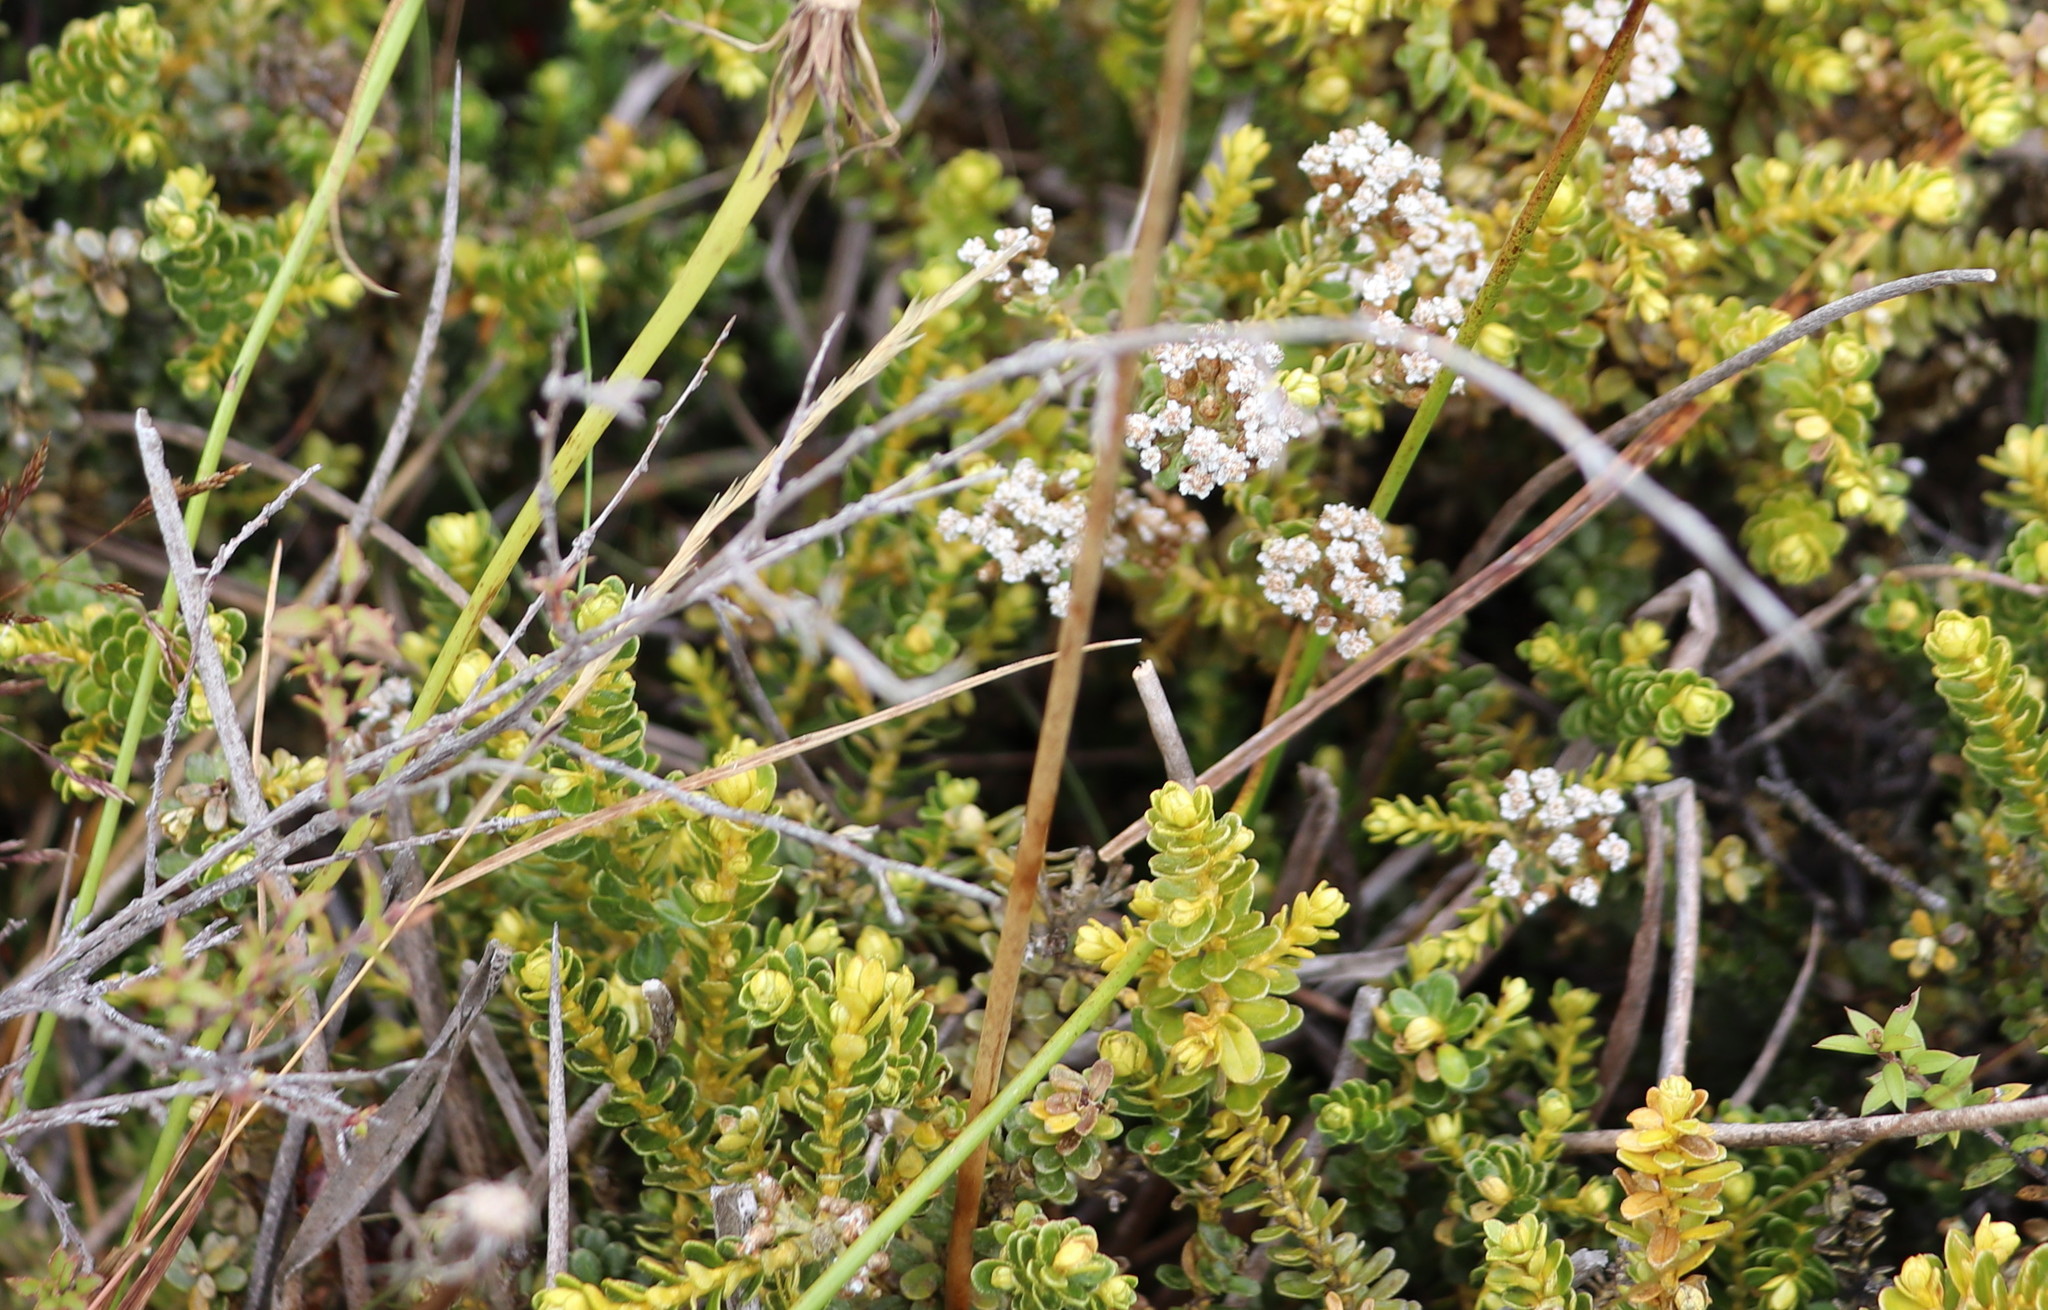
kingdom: Plantae
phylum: Tracheophyta
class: Magnoliopsida
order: Asterales
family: Asteraceae
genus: Ozothamnus
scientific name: Ozothamnus leptophyllus
